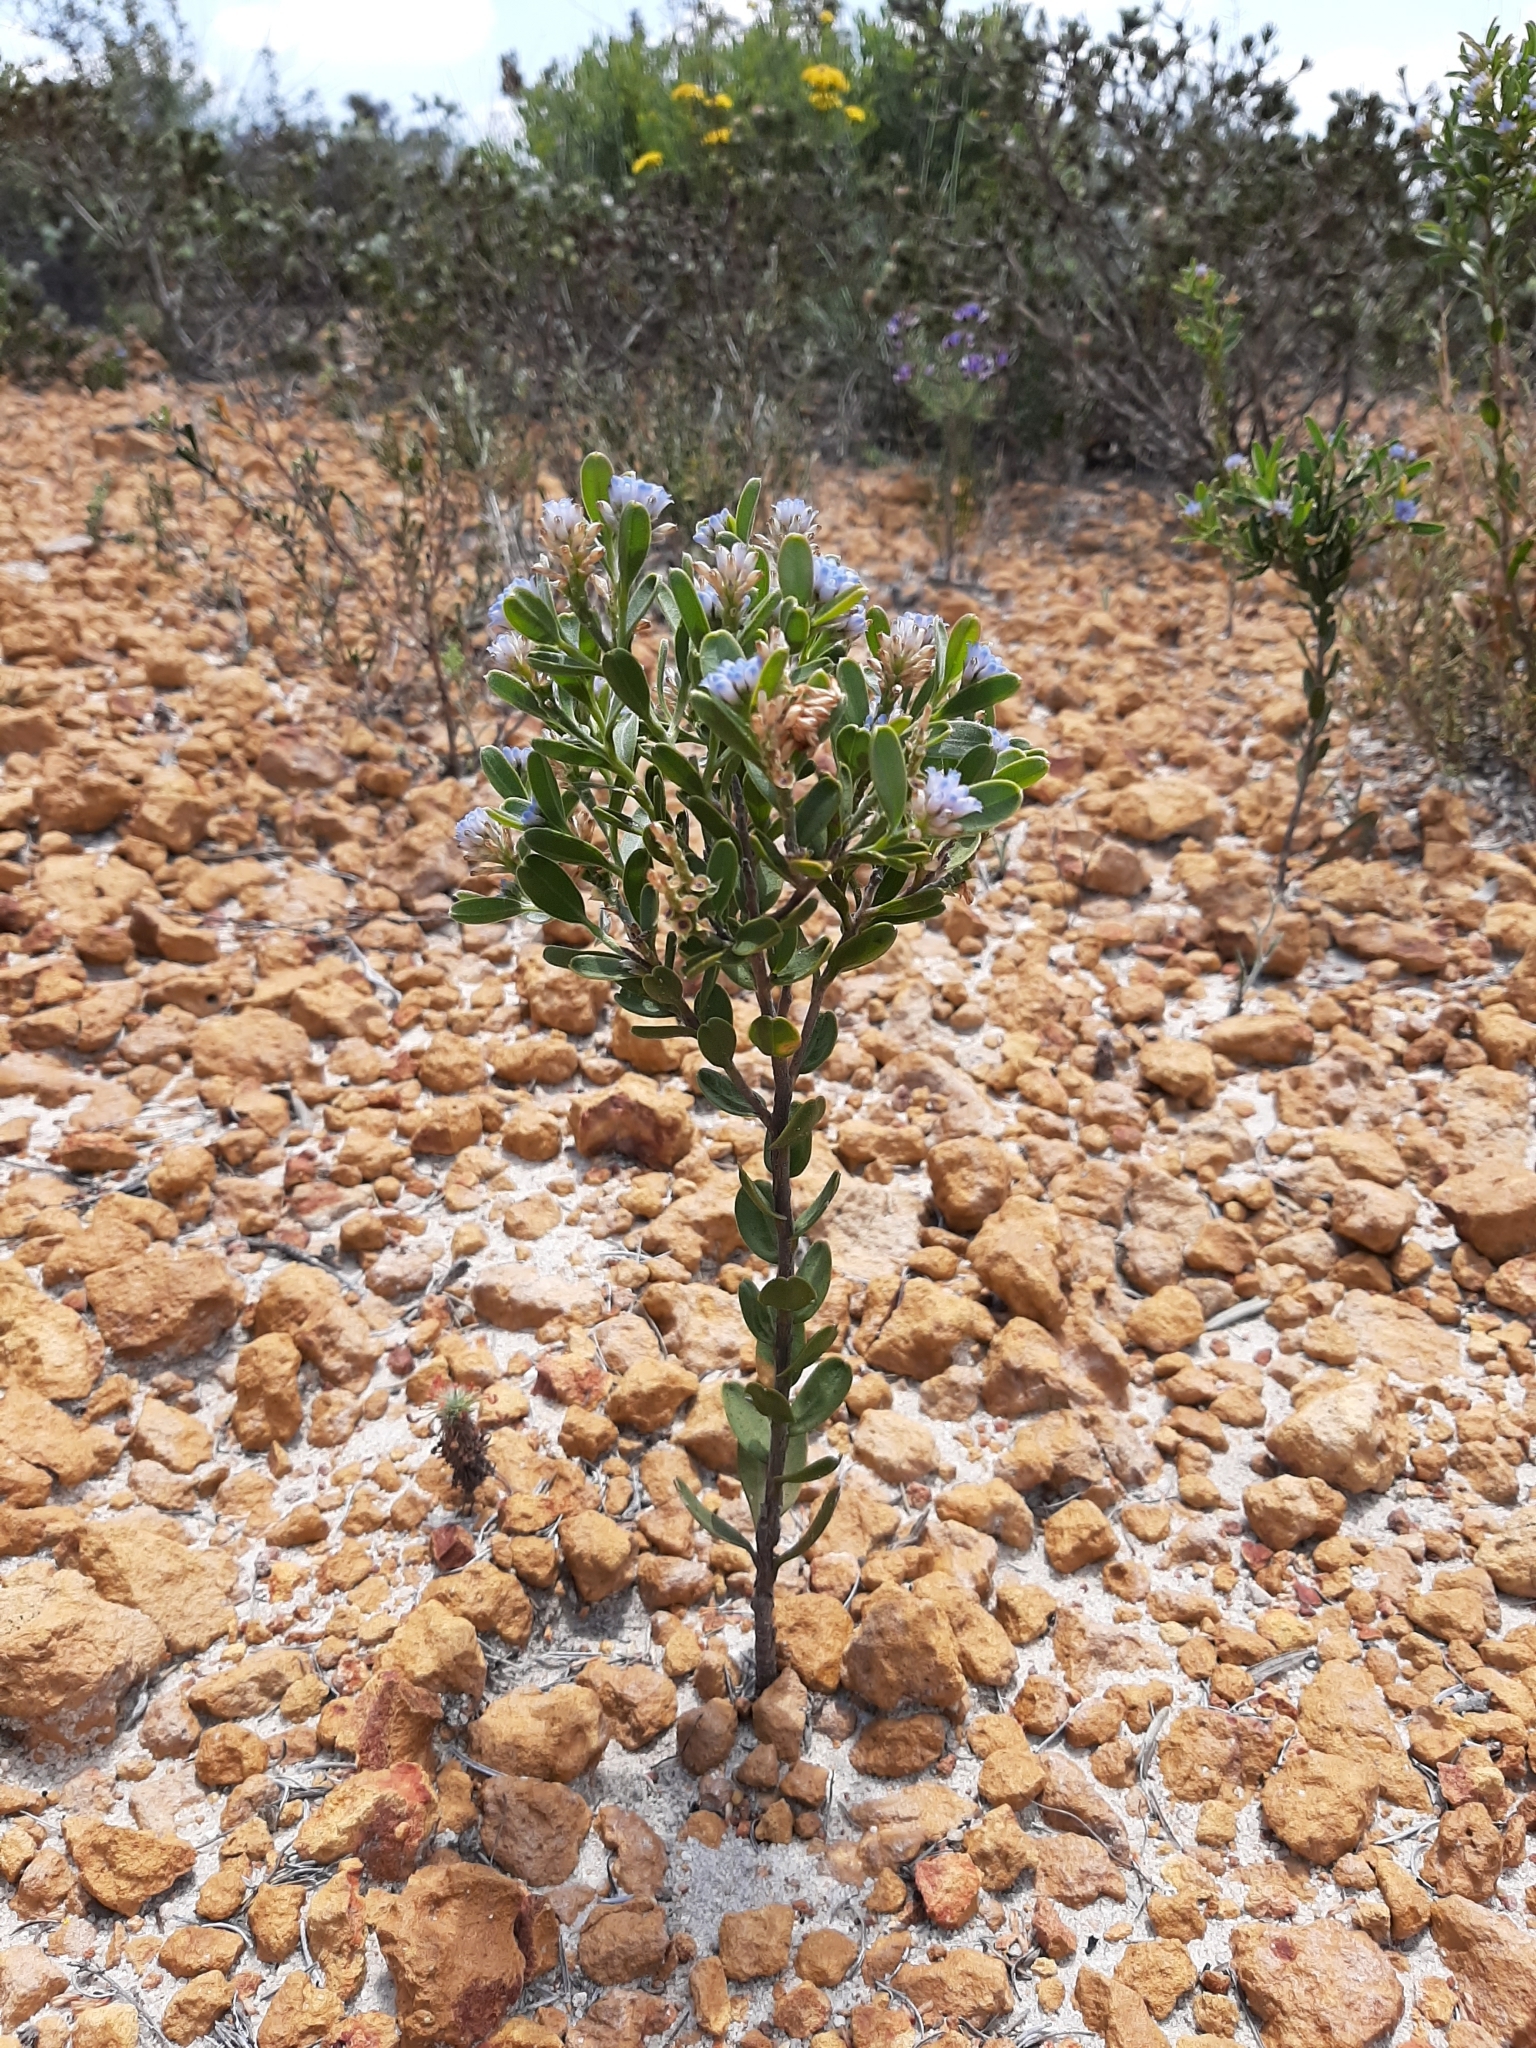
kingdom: Plantae
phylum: Tracheophyta
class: Magnoliopsida
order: Proteales
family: Proteaceae
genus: Conospermum
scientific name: Conospermum nervosum
